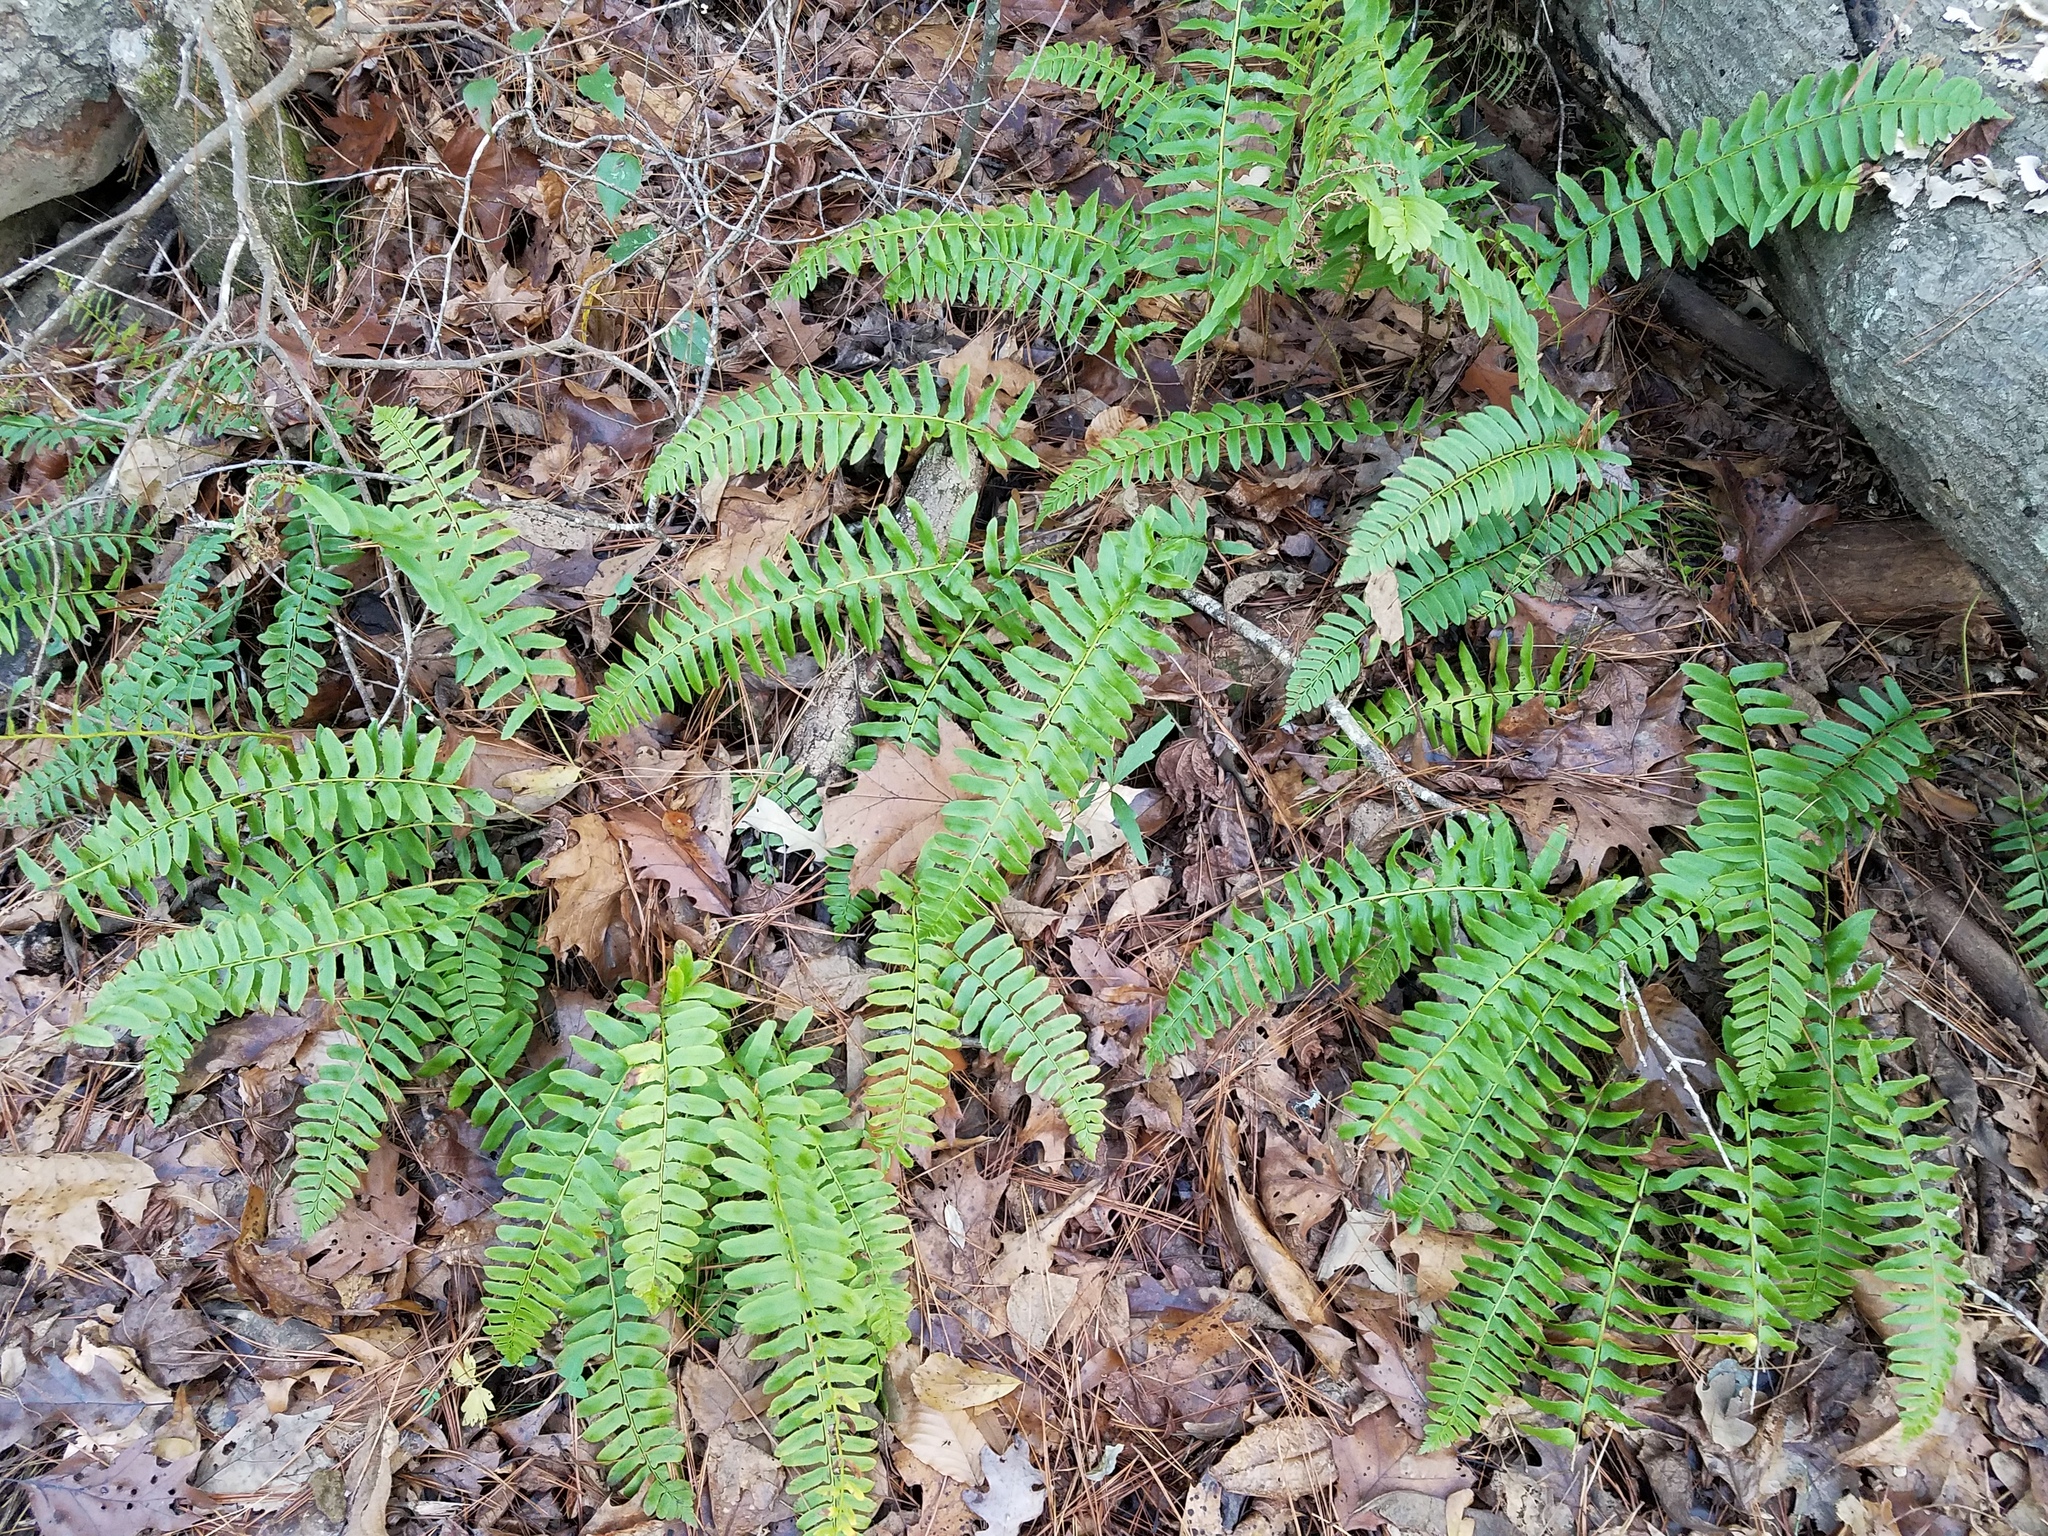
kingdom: Plantae
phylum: Tracheophyta
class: Polypodiopsida
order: Polypodiales
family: Dryopteridaceae
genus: Polystichum
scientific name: Polystichum acrostichoides
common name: Christmas fern
